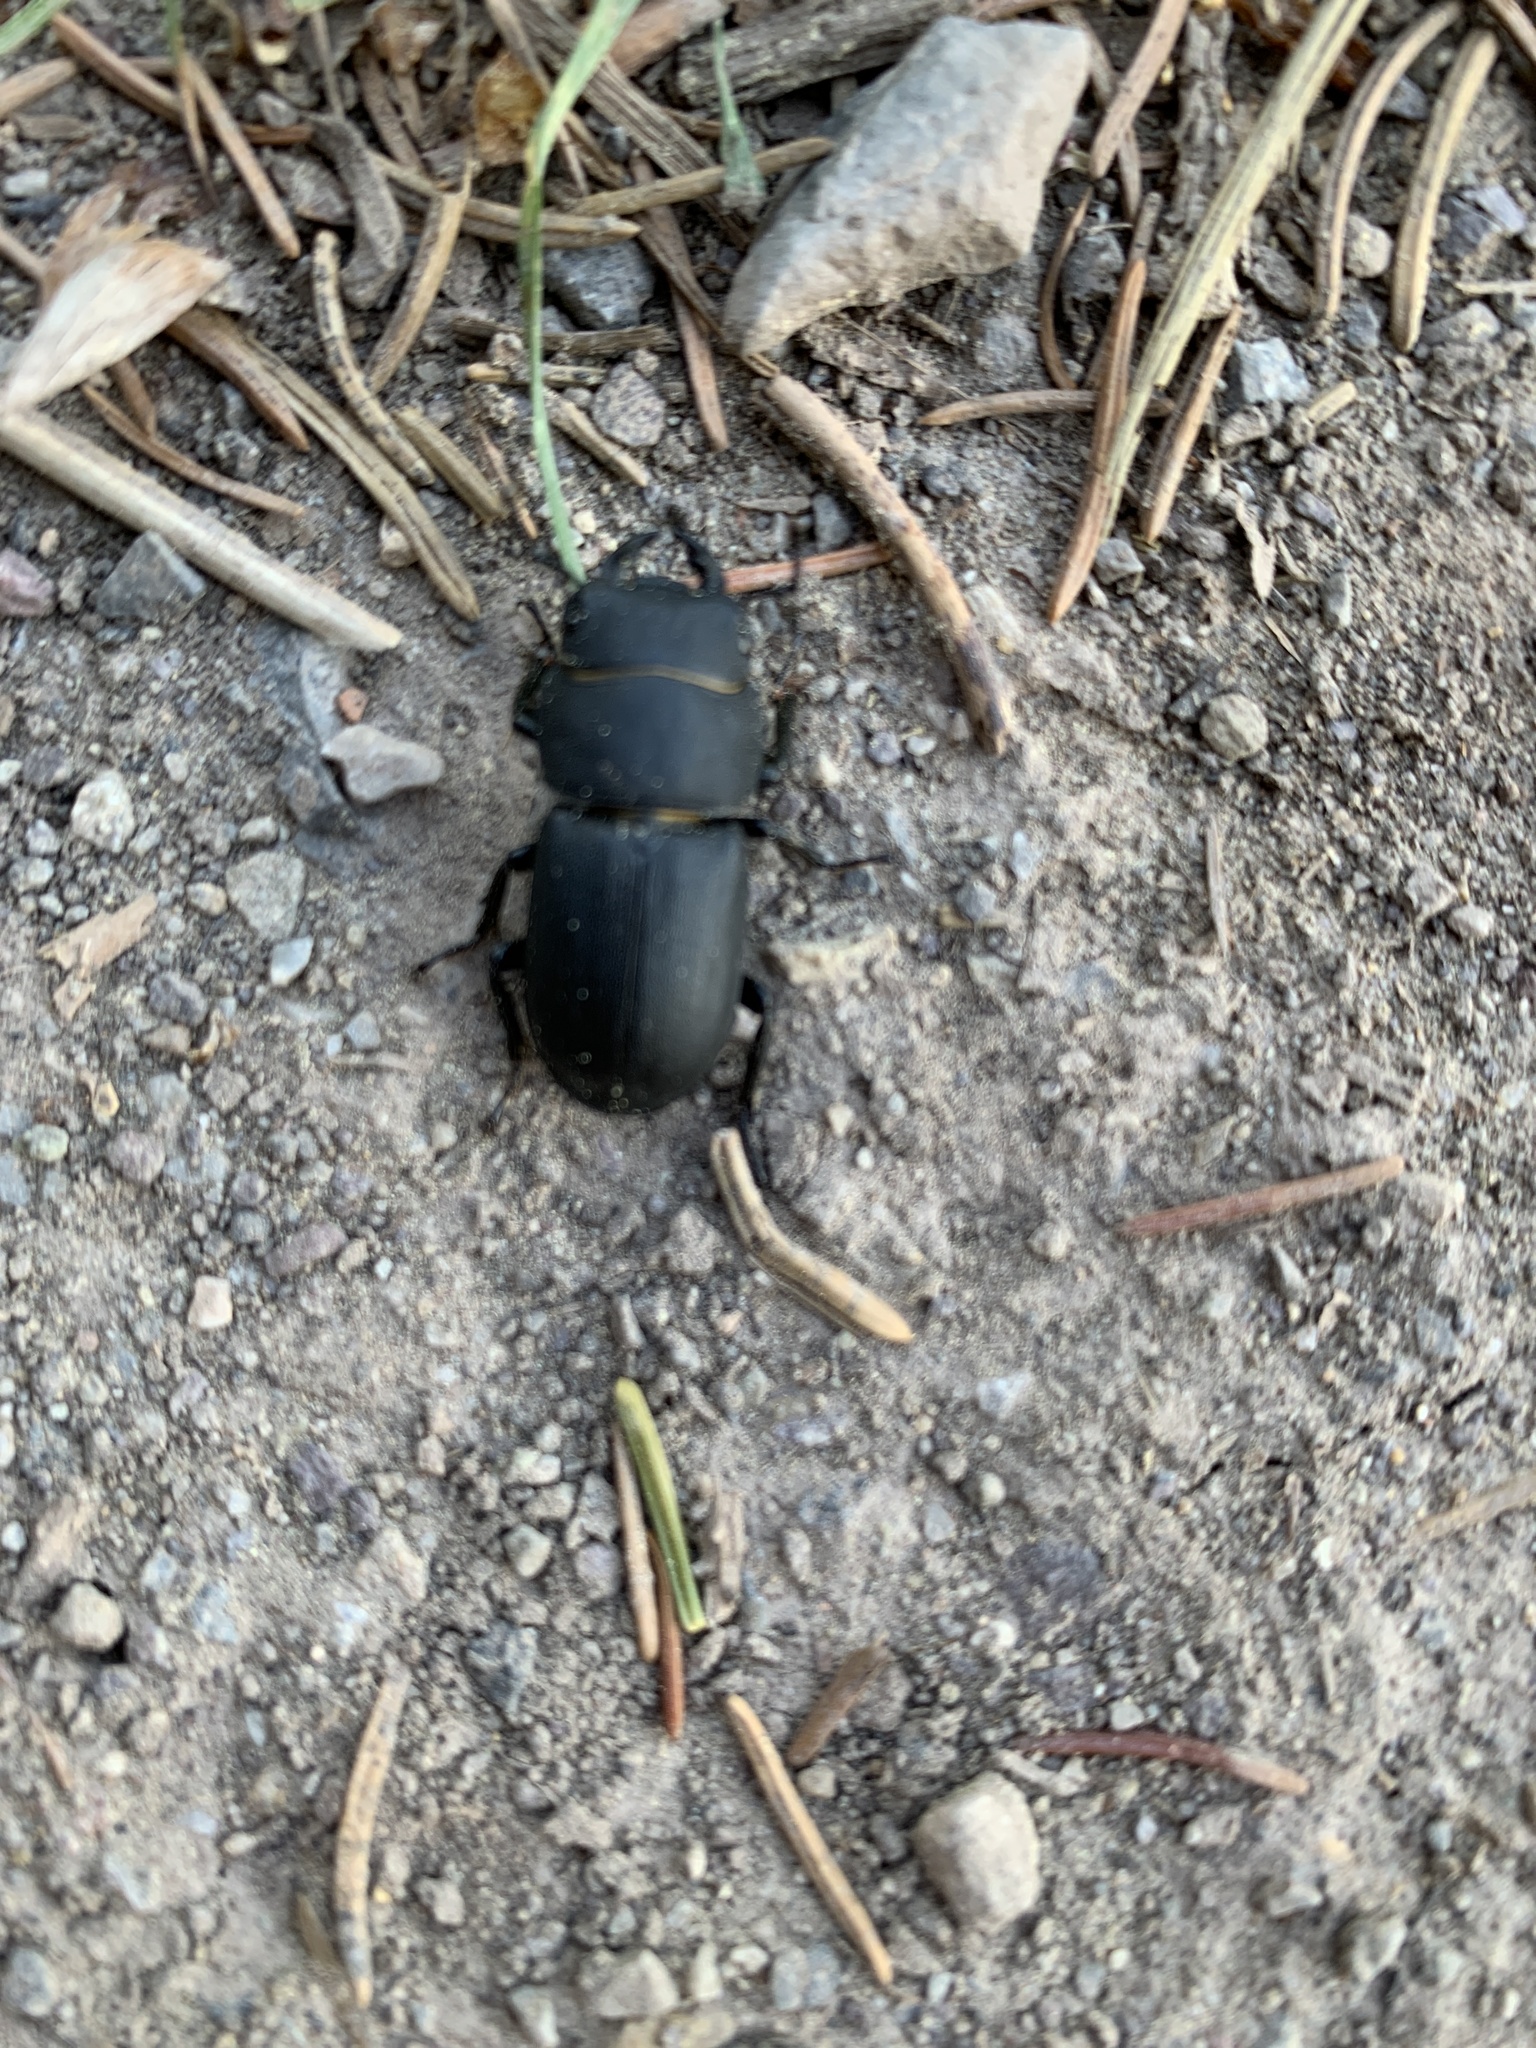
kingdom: Animalia
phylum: Arthropoda
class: Insecta
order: Coleoptera
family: Lucanidae
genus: Dorcus
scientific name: Dorcus parallelipipedus
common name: Lesser stag beetle
